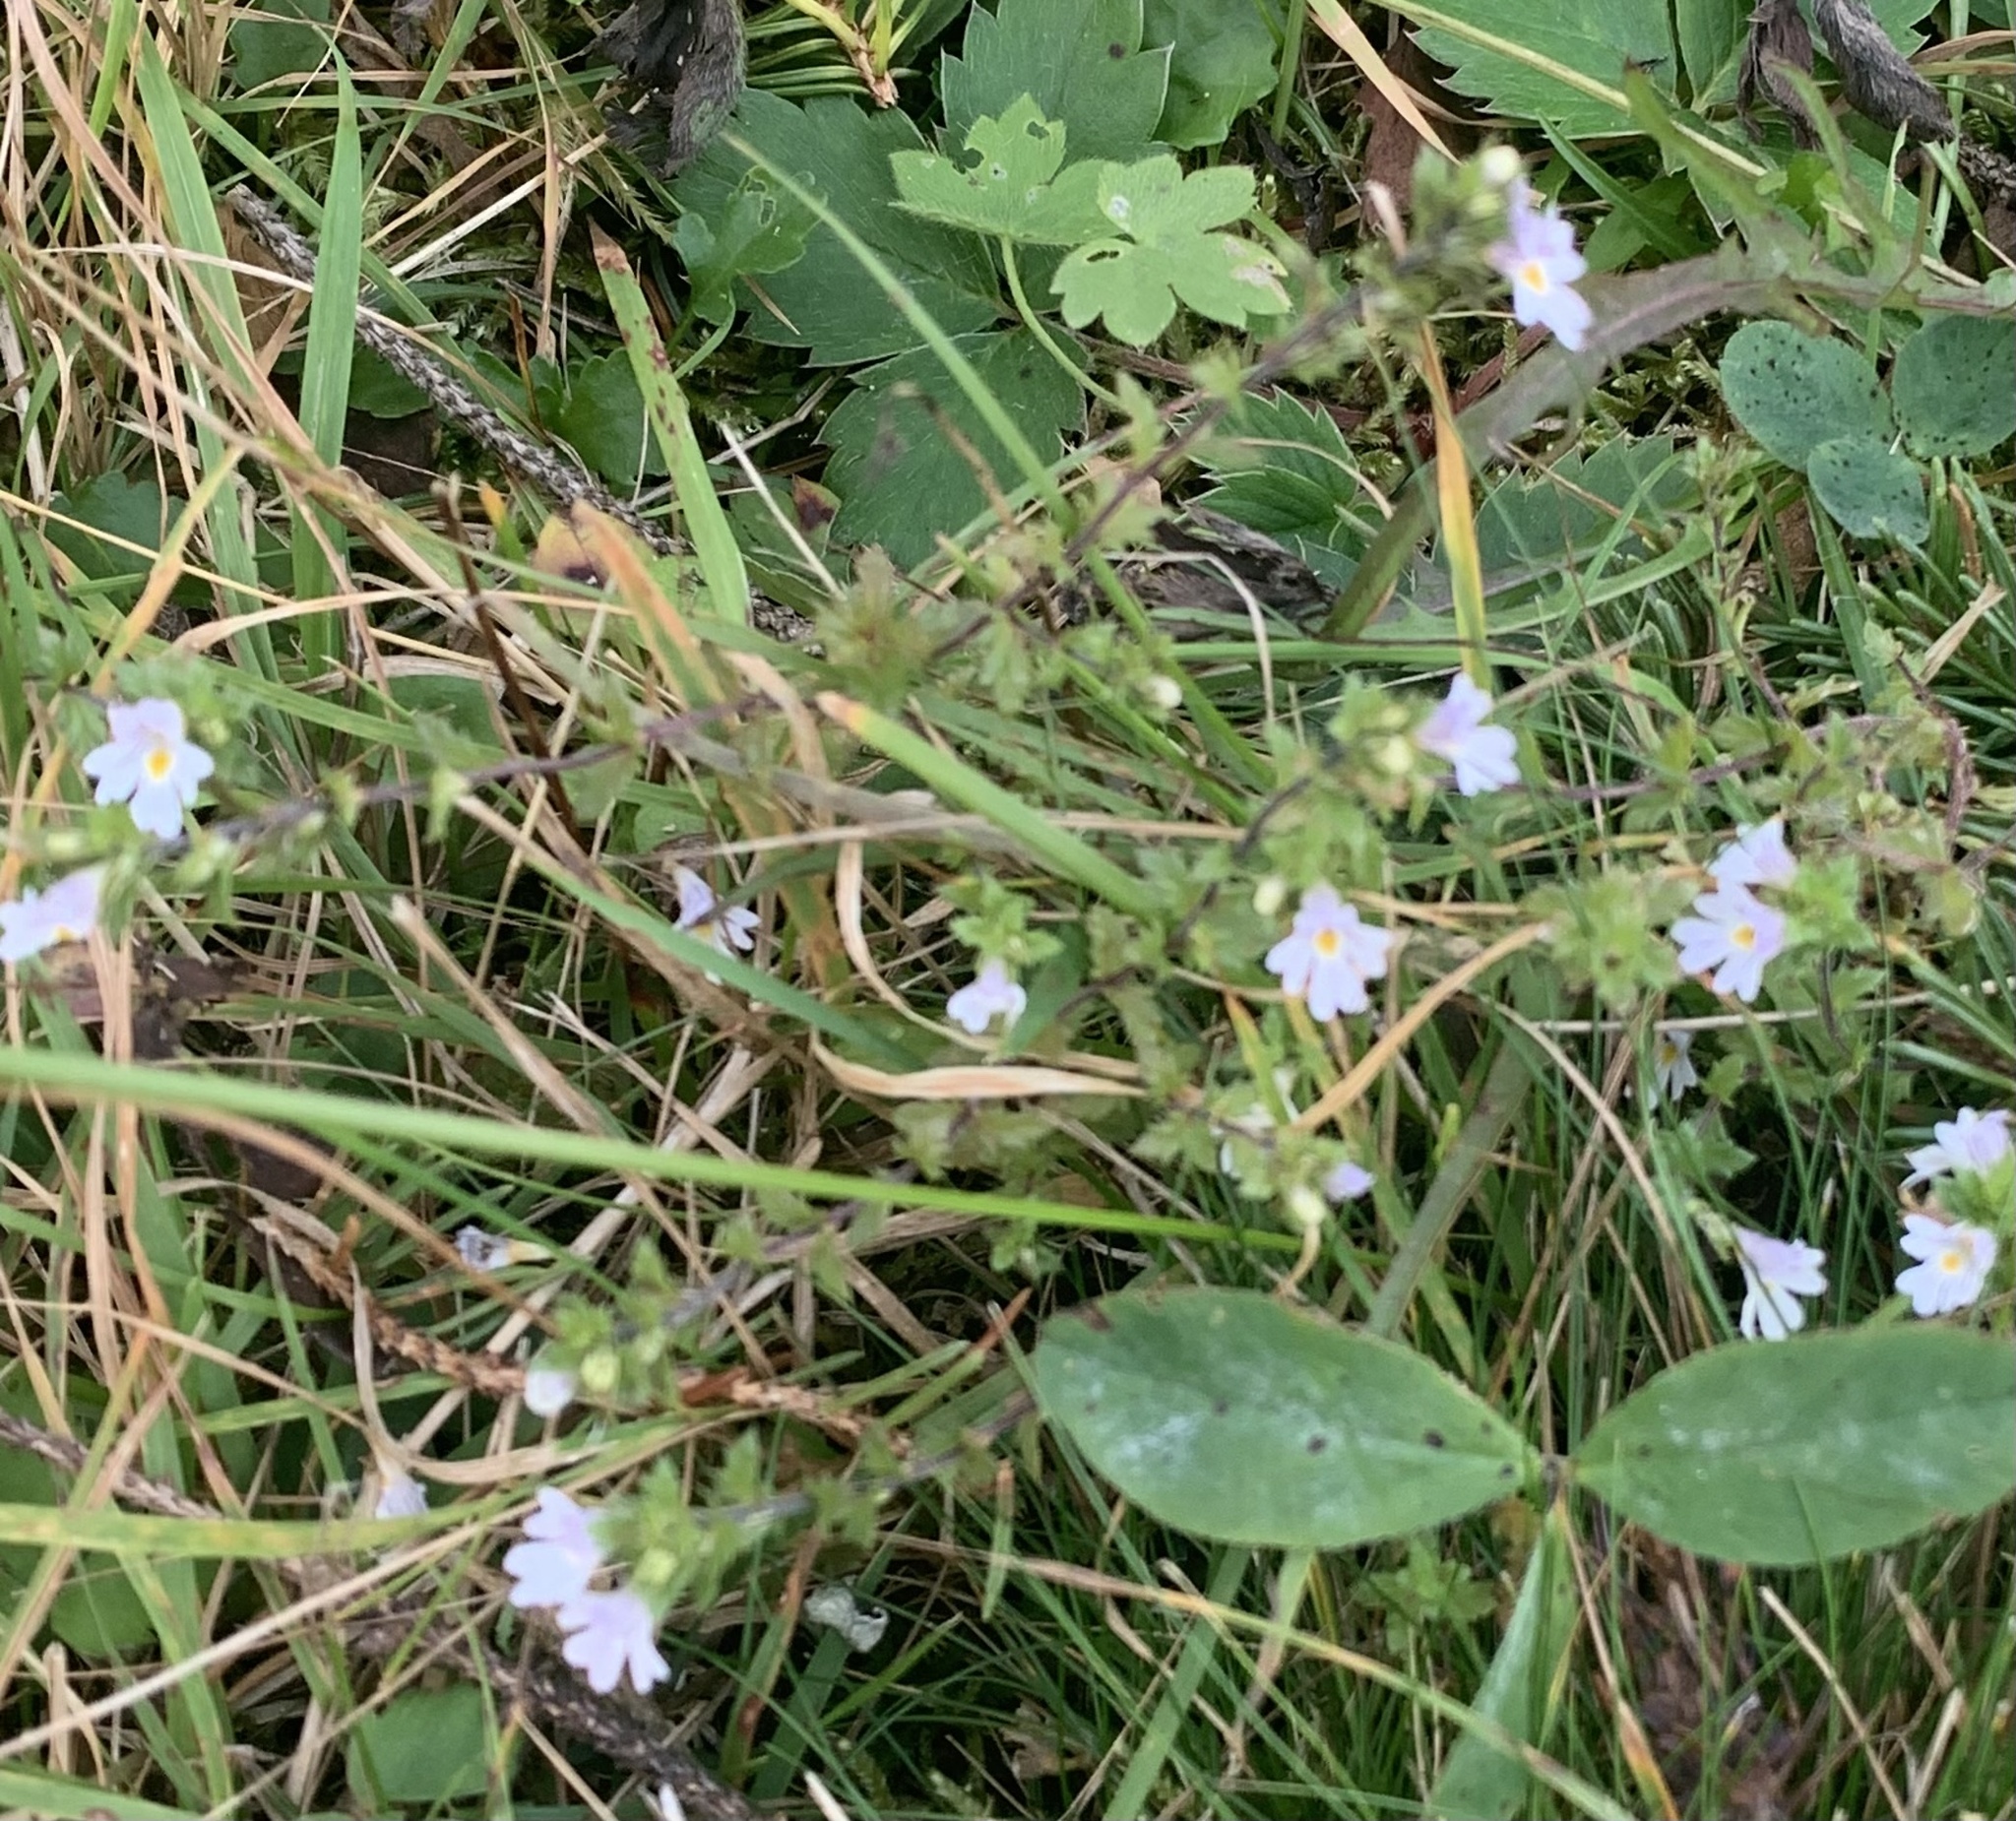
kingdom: Plantae
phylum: Tracheophyta
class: Magnoliopsida
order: Lamiales
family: Orobanchaceae
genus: Euphrasia
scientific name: Euphrasia nemorosa
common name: Common eyebright
